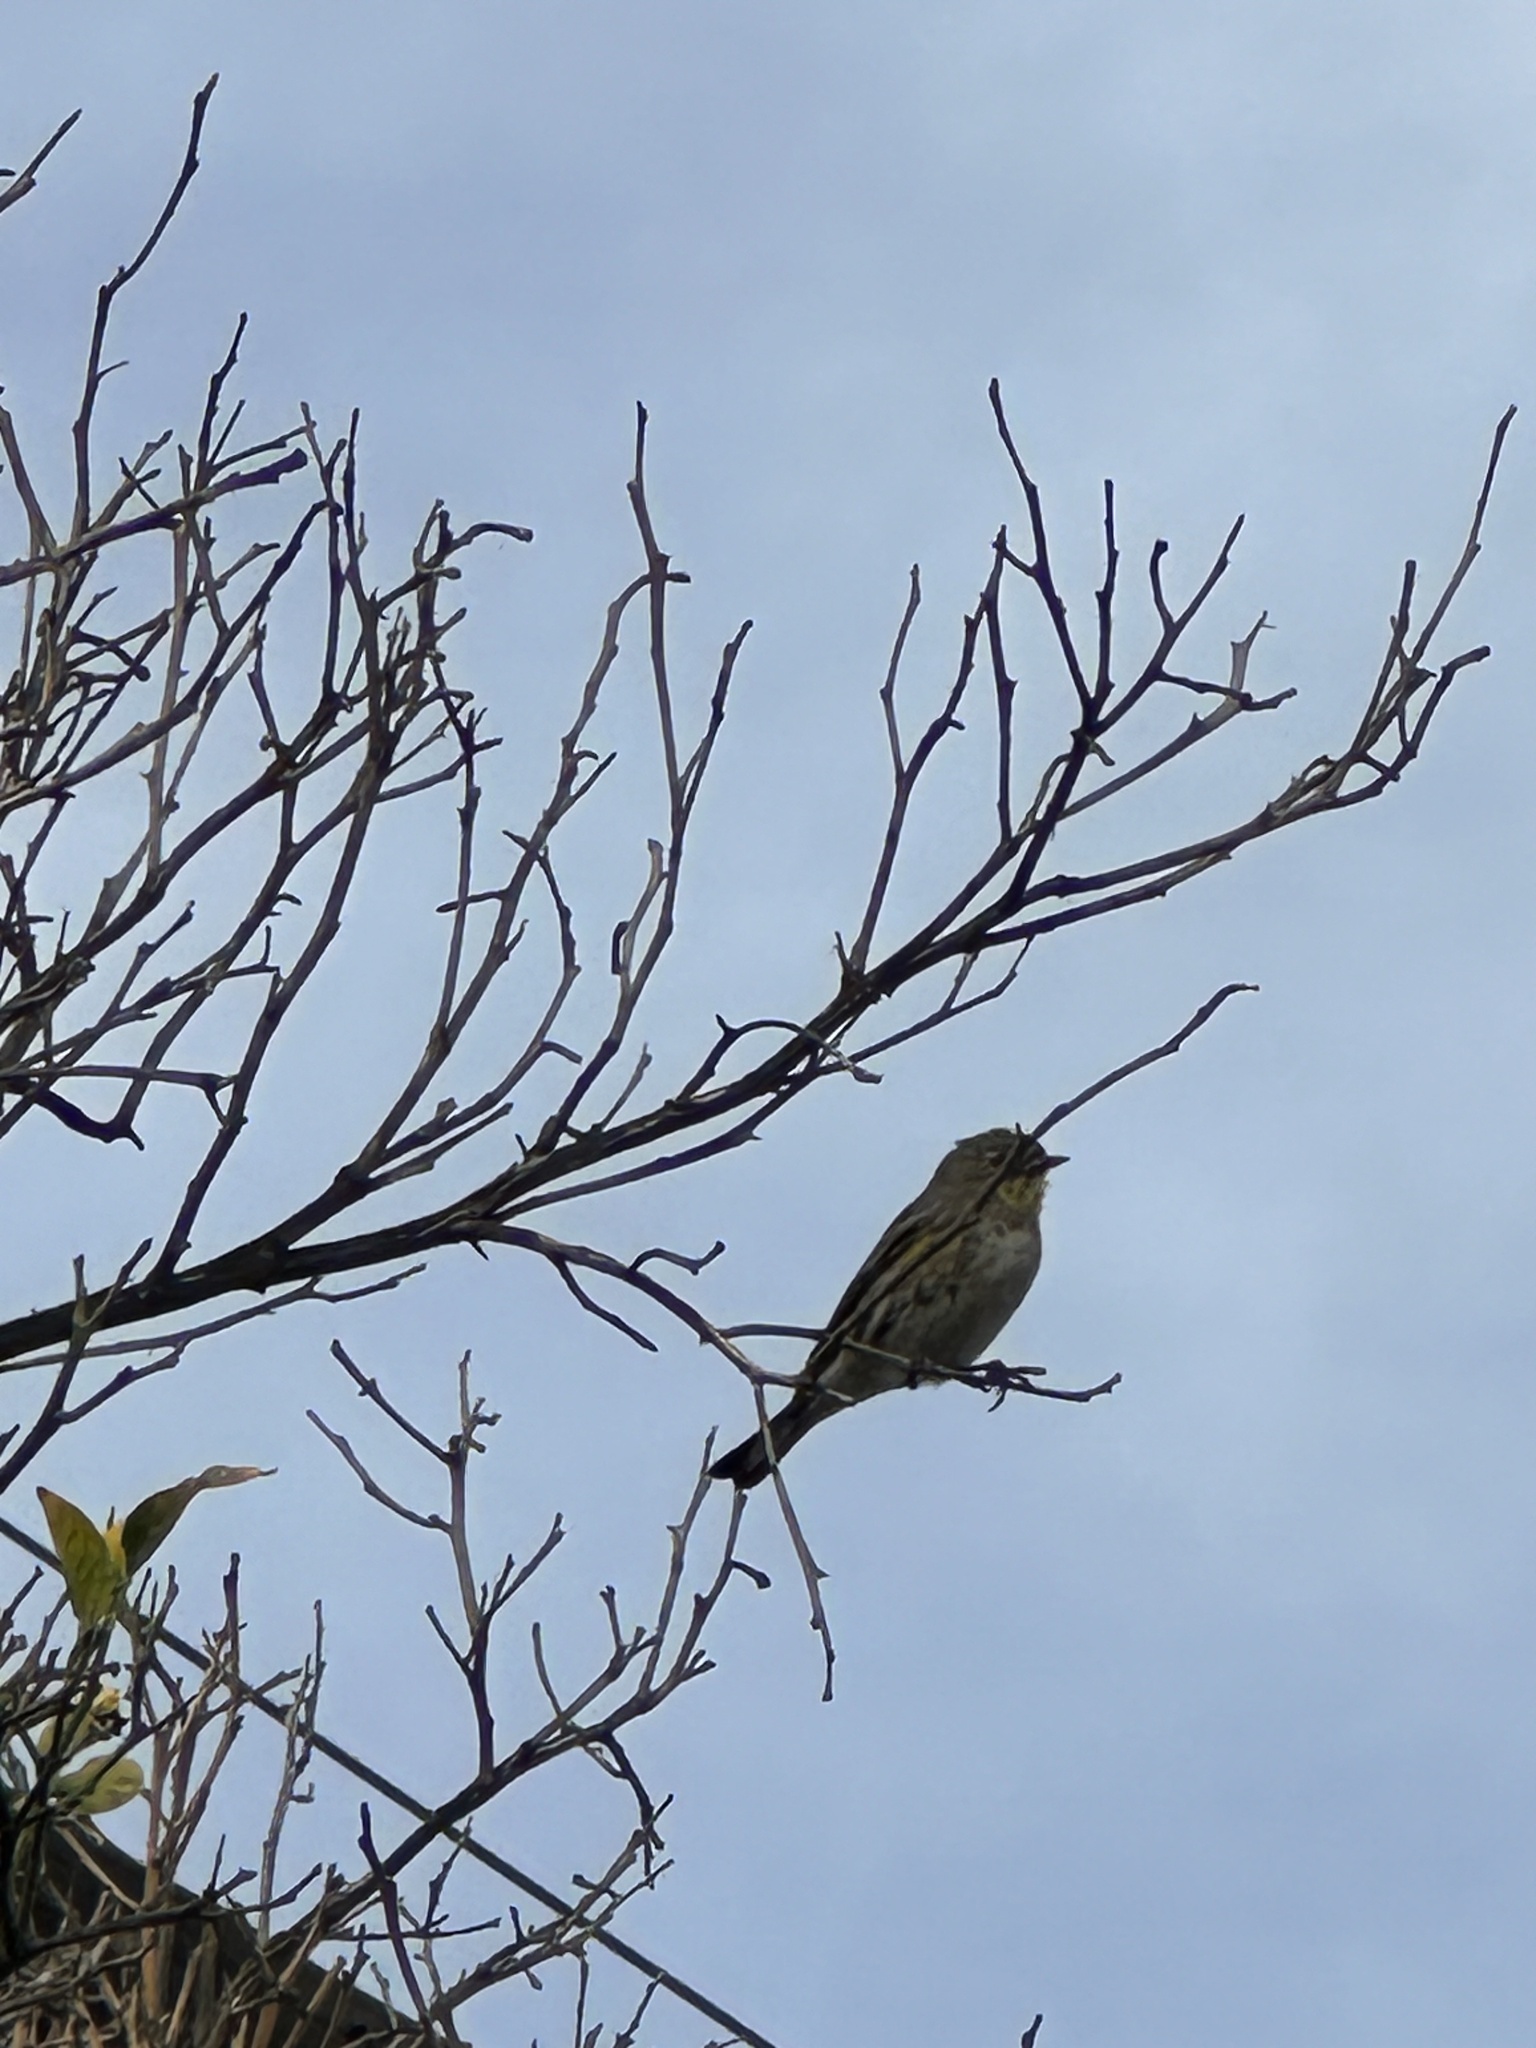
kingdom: Animalia
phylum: Chordata
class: Aves
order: Passeriformes
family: Parulidae
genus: Setophaga
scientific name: Setophaga coronata
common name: Myrtle warbler
